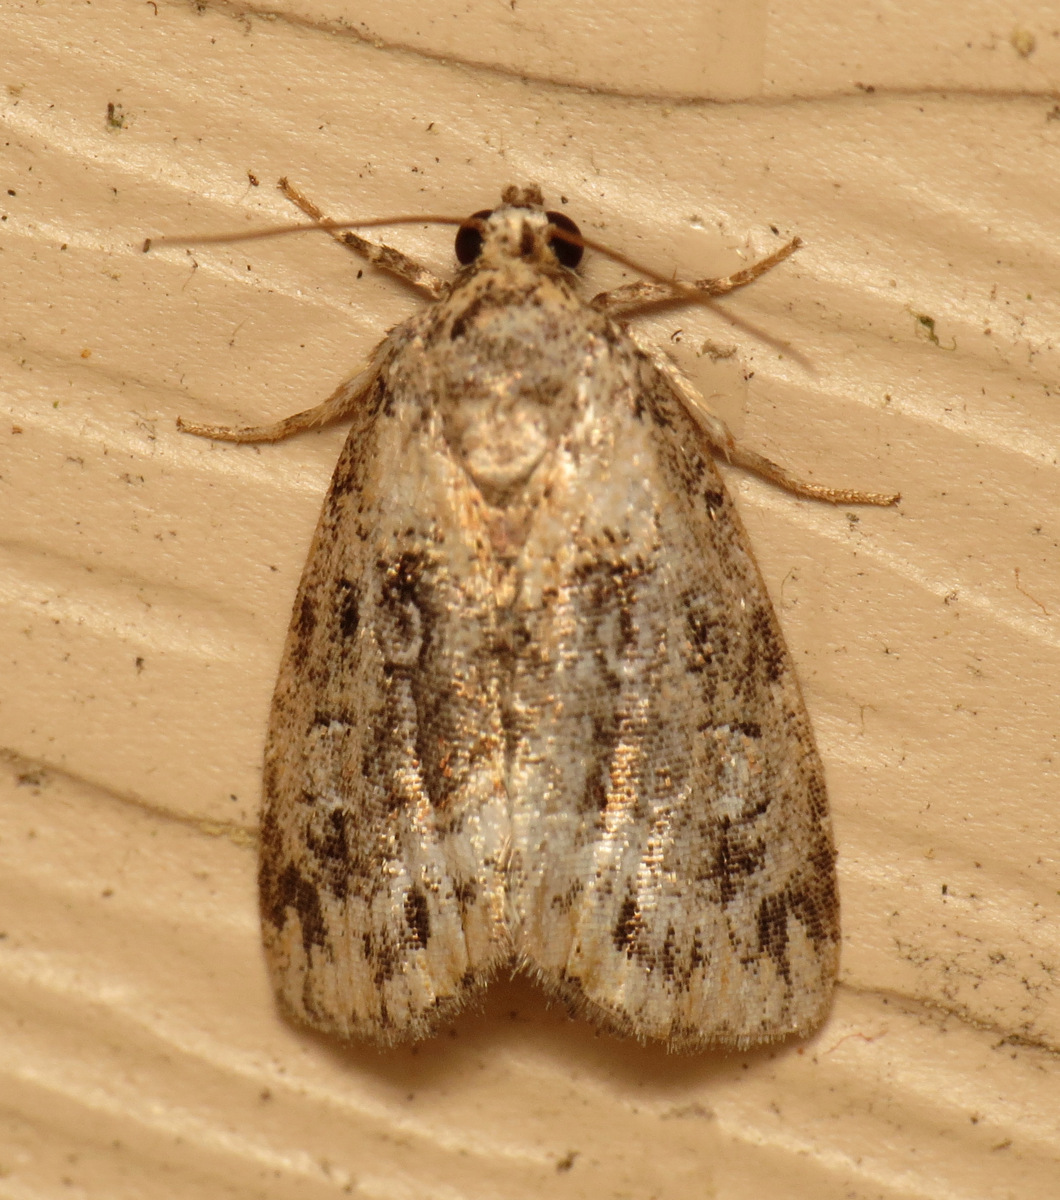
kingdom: Animalia
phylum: Arthropoda
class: Insecta
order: Lepidoptera
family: Noctuidae
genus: Protodeltote
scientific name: Protodeltote muscosula
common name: Large mossy glyph
